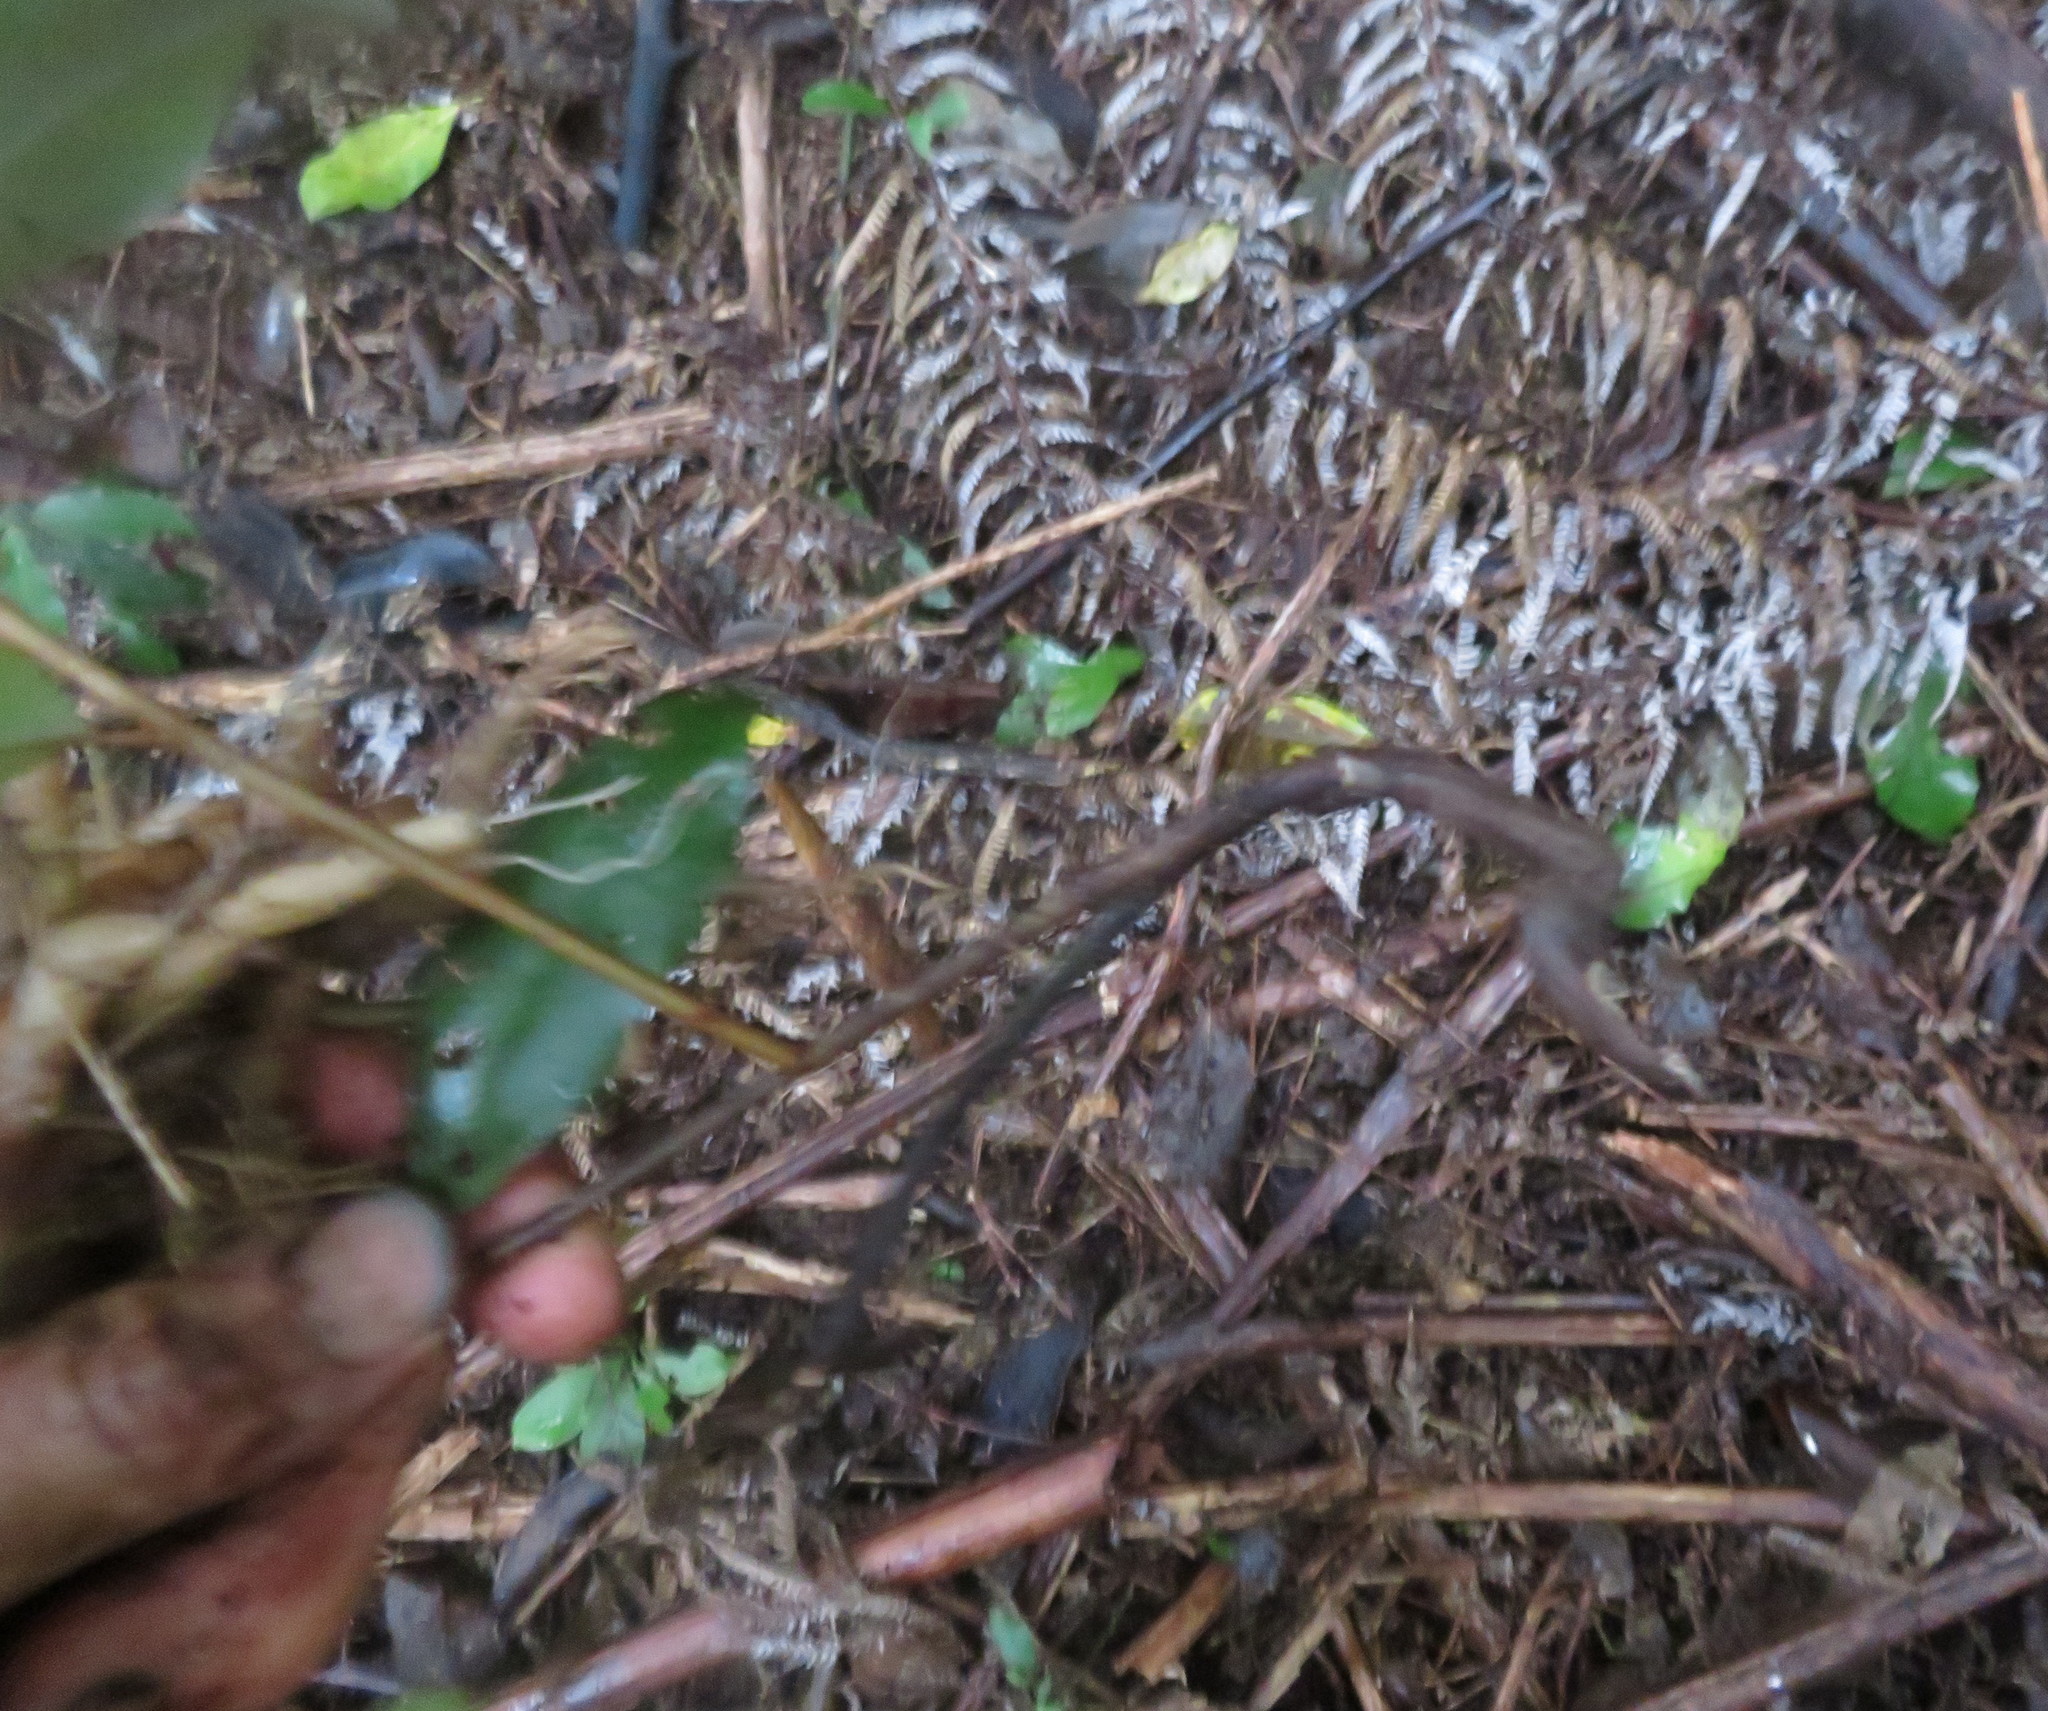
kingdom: Plantae
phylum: Tracheophyta
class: Polypodiopsida
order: Cyatheales
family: Cyatheaceae
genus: Alsophila
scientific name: Alsophila dealbata
